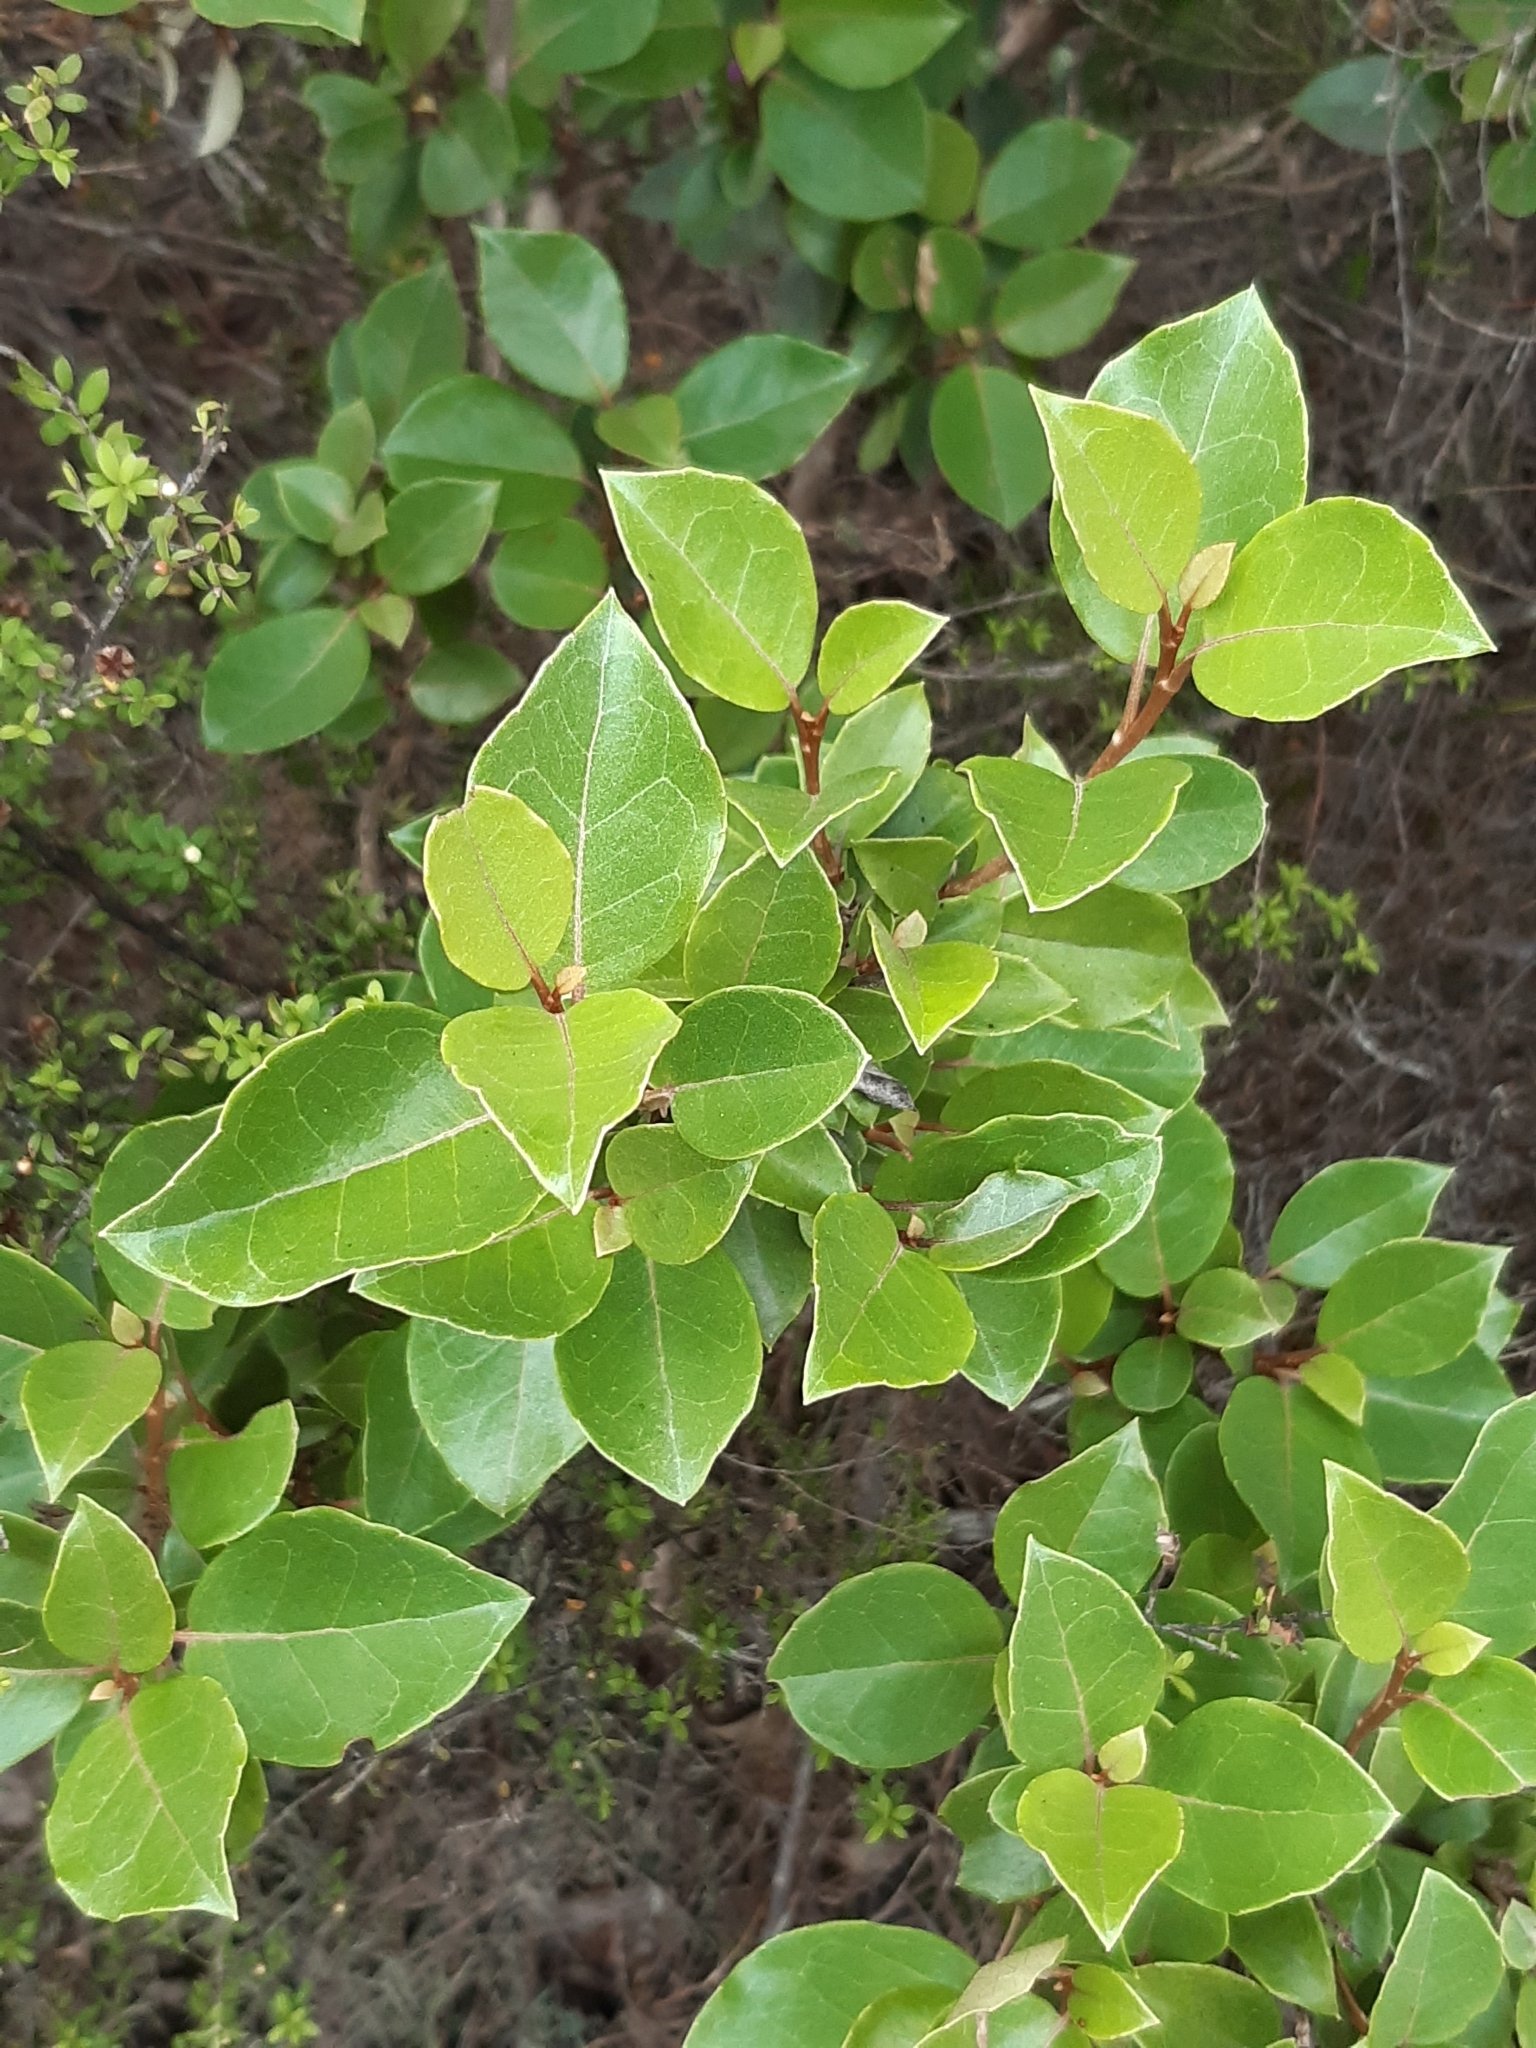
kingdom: Plantae
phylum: Tracheophyta
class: Magnoliopsida
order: Asterales
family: Asteraceae
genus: Olearia
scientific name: Olearia arborescens
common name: Glossy tree daisy
